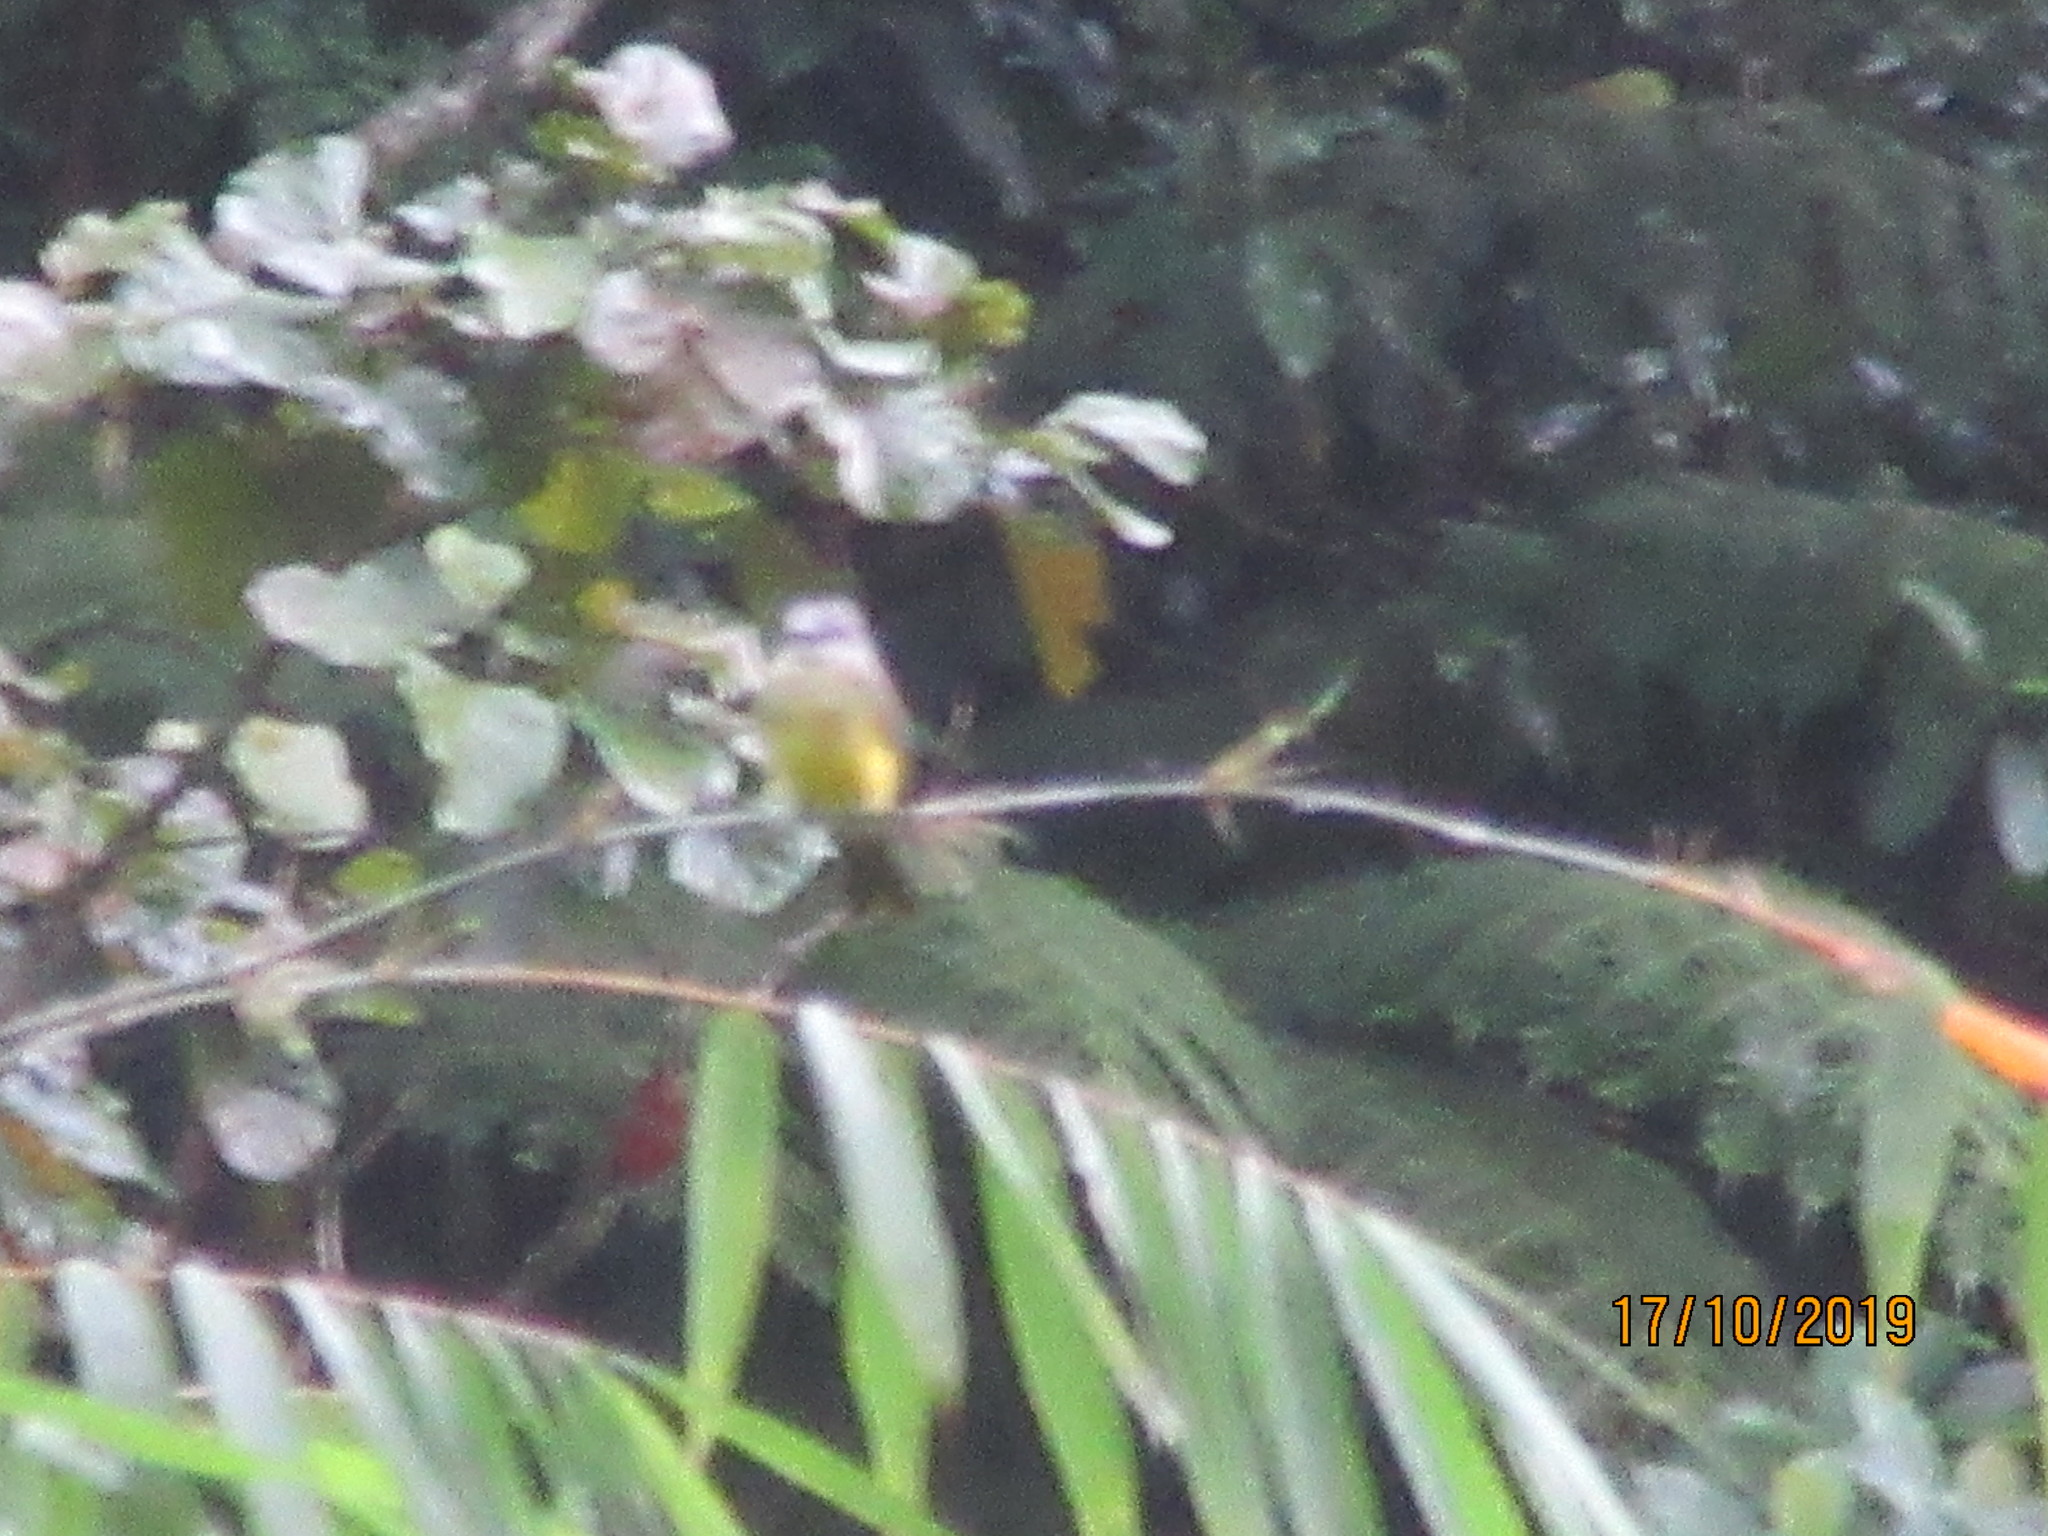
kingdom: Animalia
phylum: Chordata
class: Aves
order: Passeriformes
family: Tyrannidae
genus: Tyrannus
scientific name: Tyrannus melancholicus
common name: Tropical kingbird
